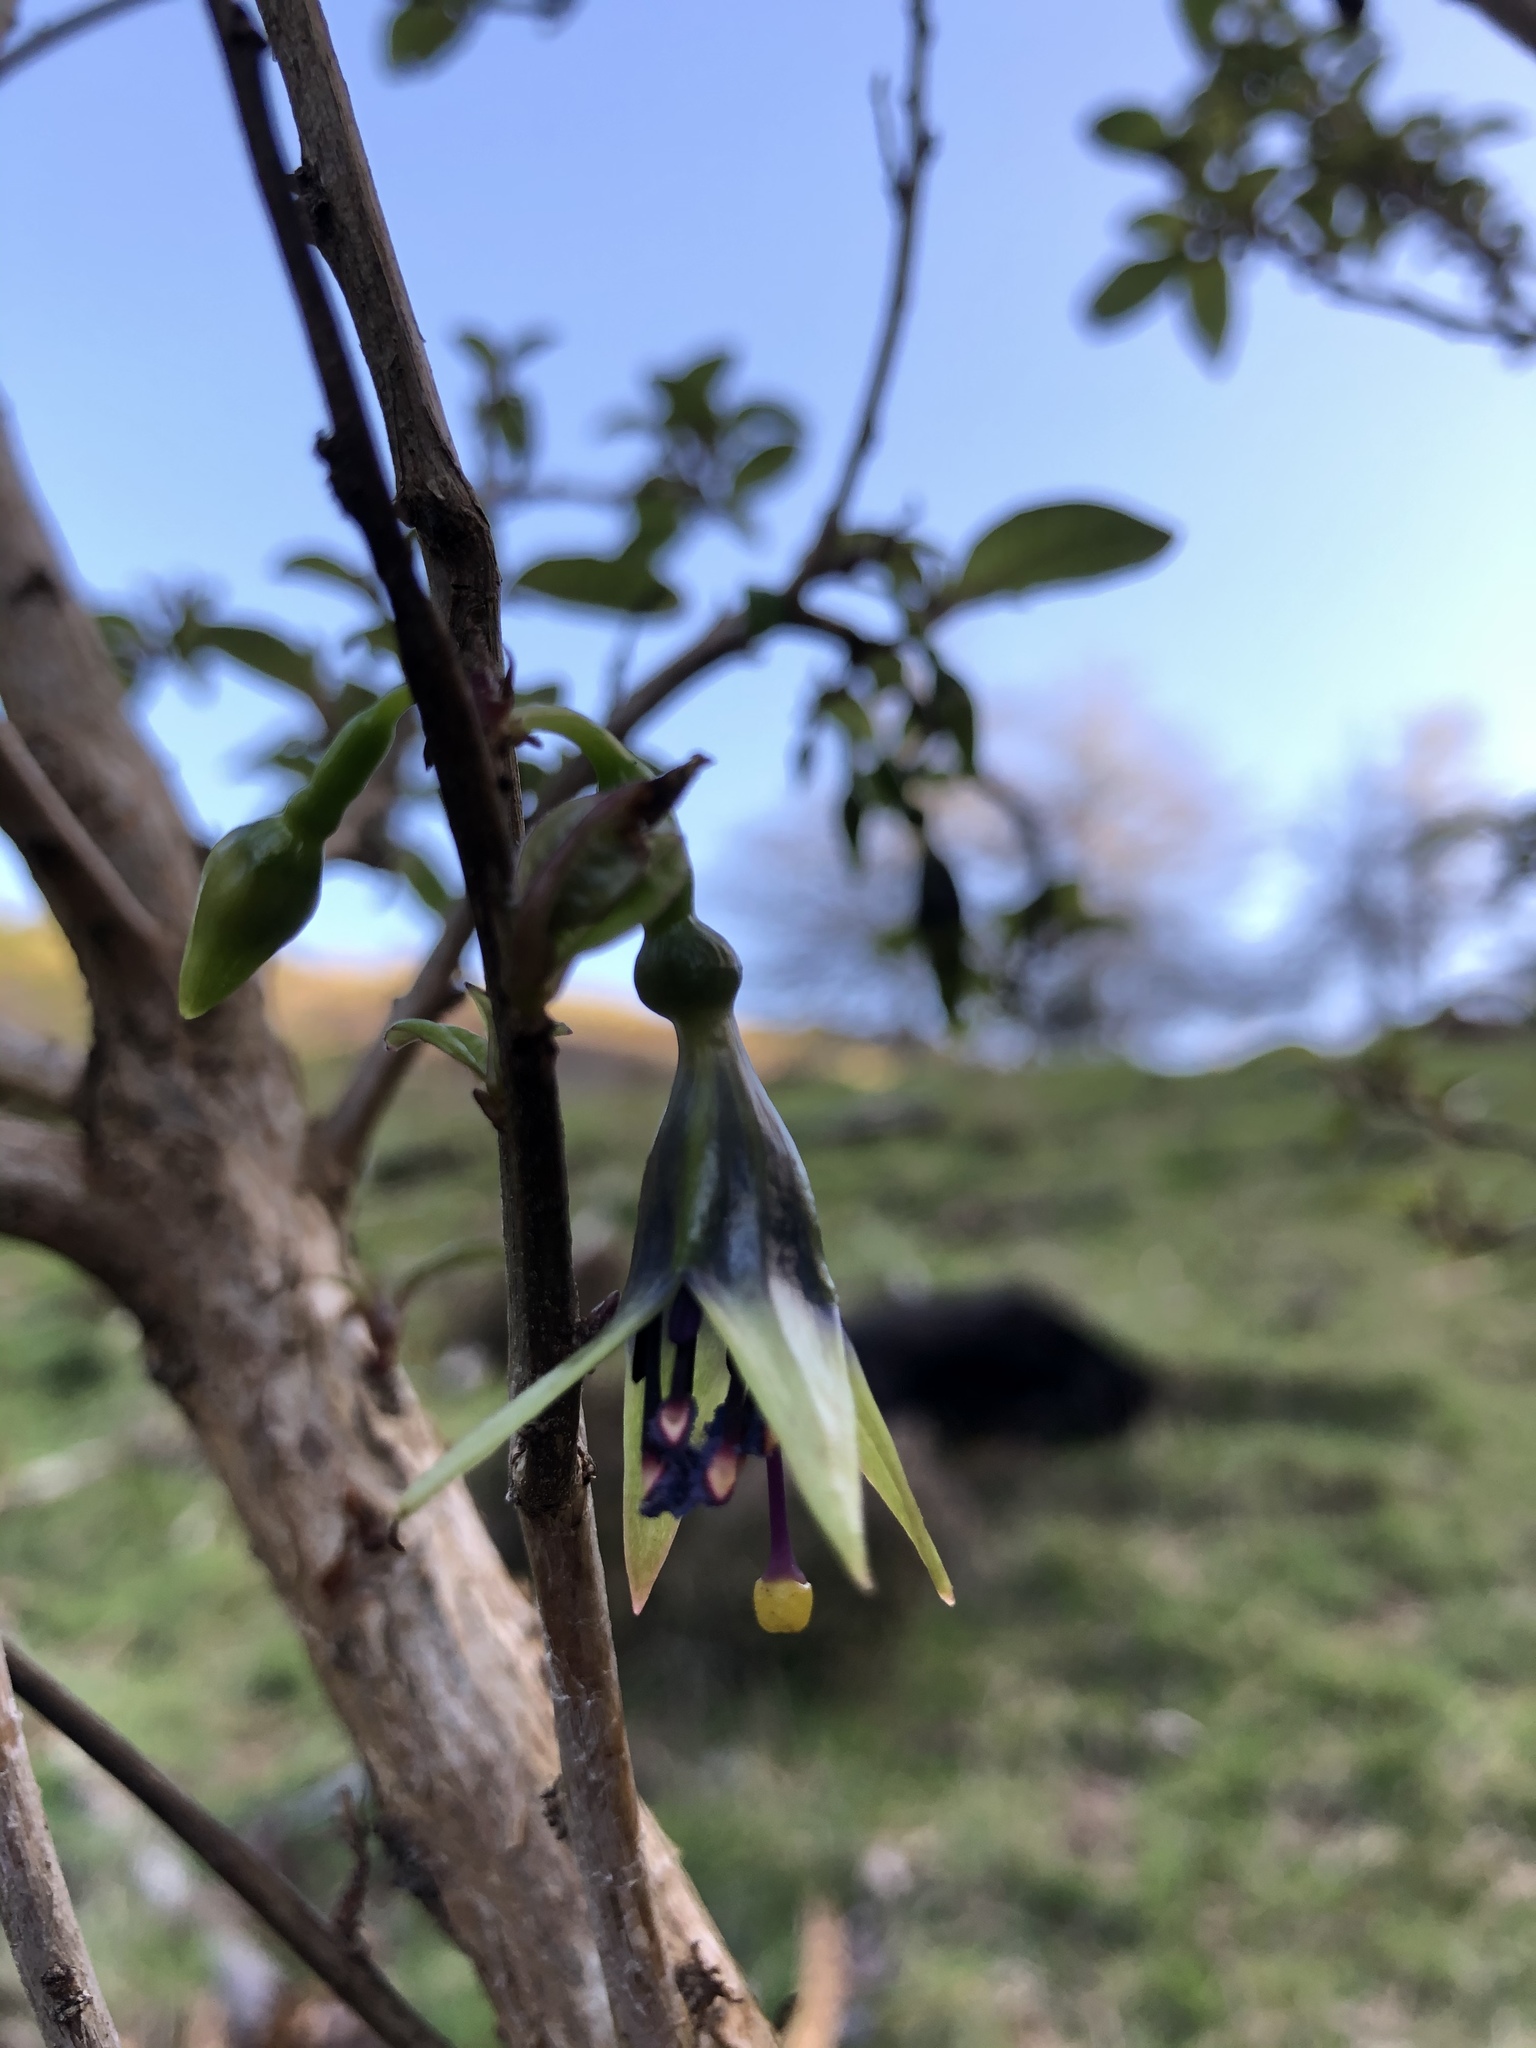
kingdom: Plantae
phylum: Tracheophyta
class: Magnoliopsida
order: Myrtales
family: Onagraceae
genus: Fuchsia
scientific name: Fuchsia excorticata
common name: Tree fuchsia
